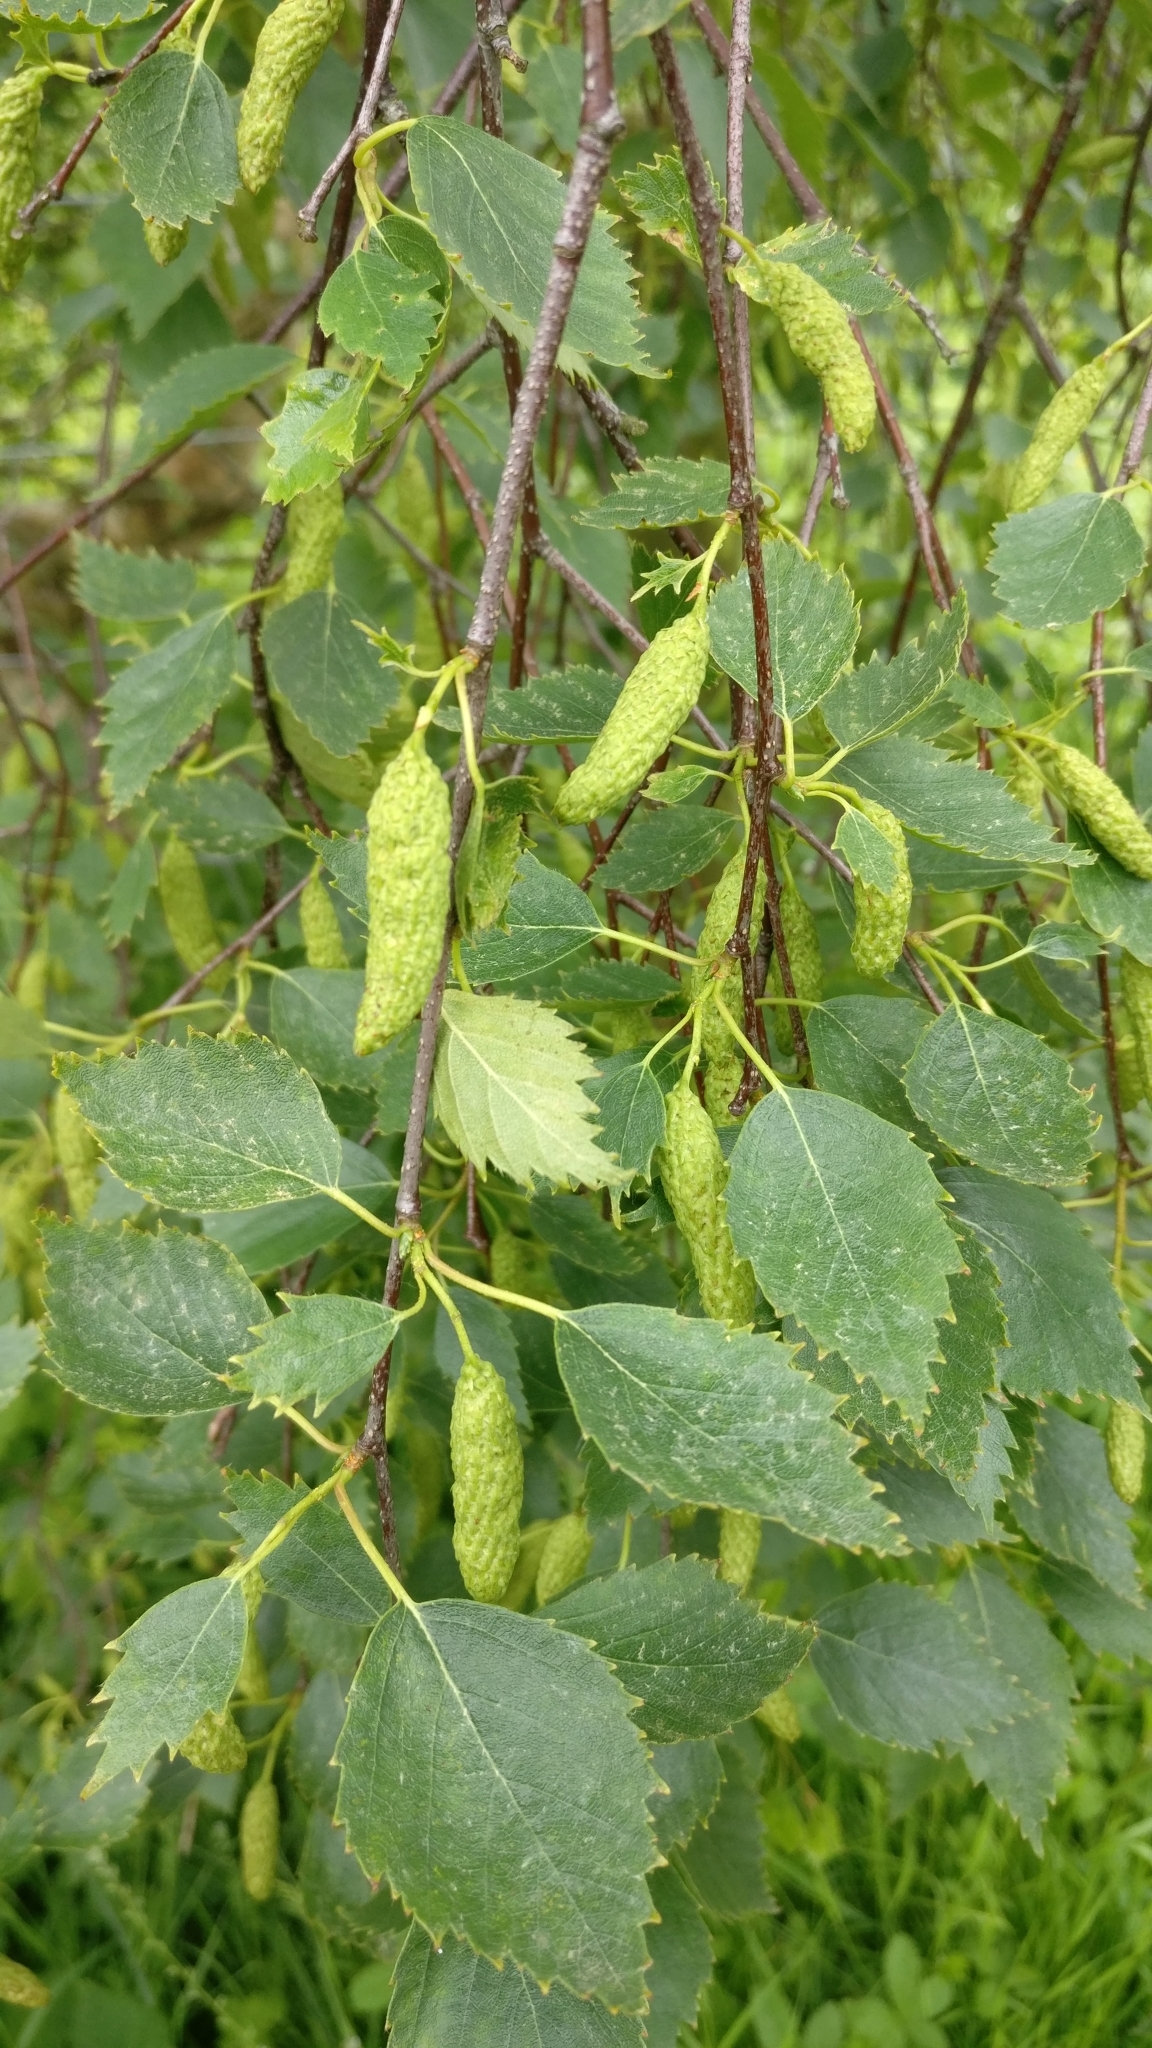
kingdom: Plantae
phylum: Tracheophyta
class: Magnoliopsida
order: Fagales
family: Betulaceae
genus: Betula
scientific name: Betula pendula
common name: Silver birch
